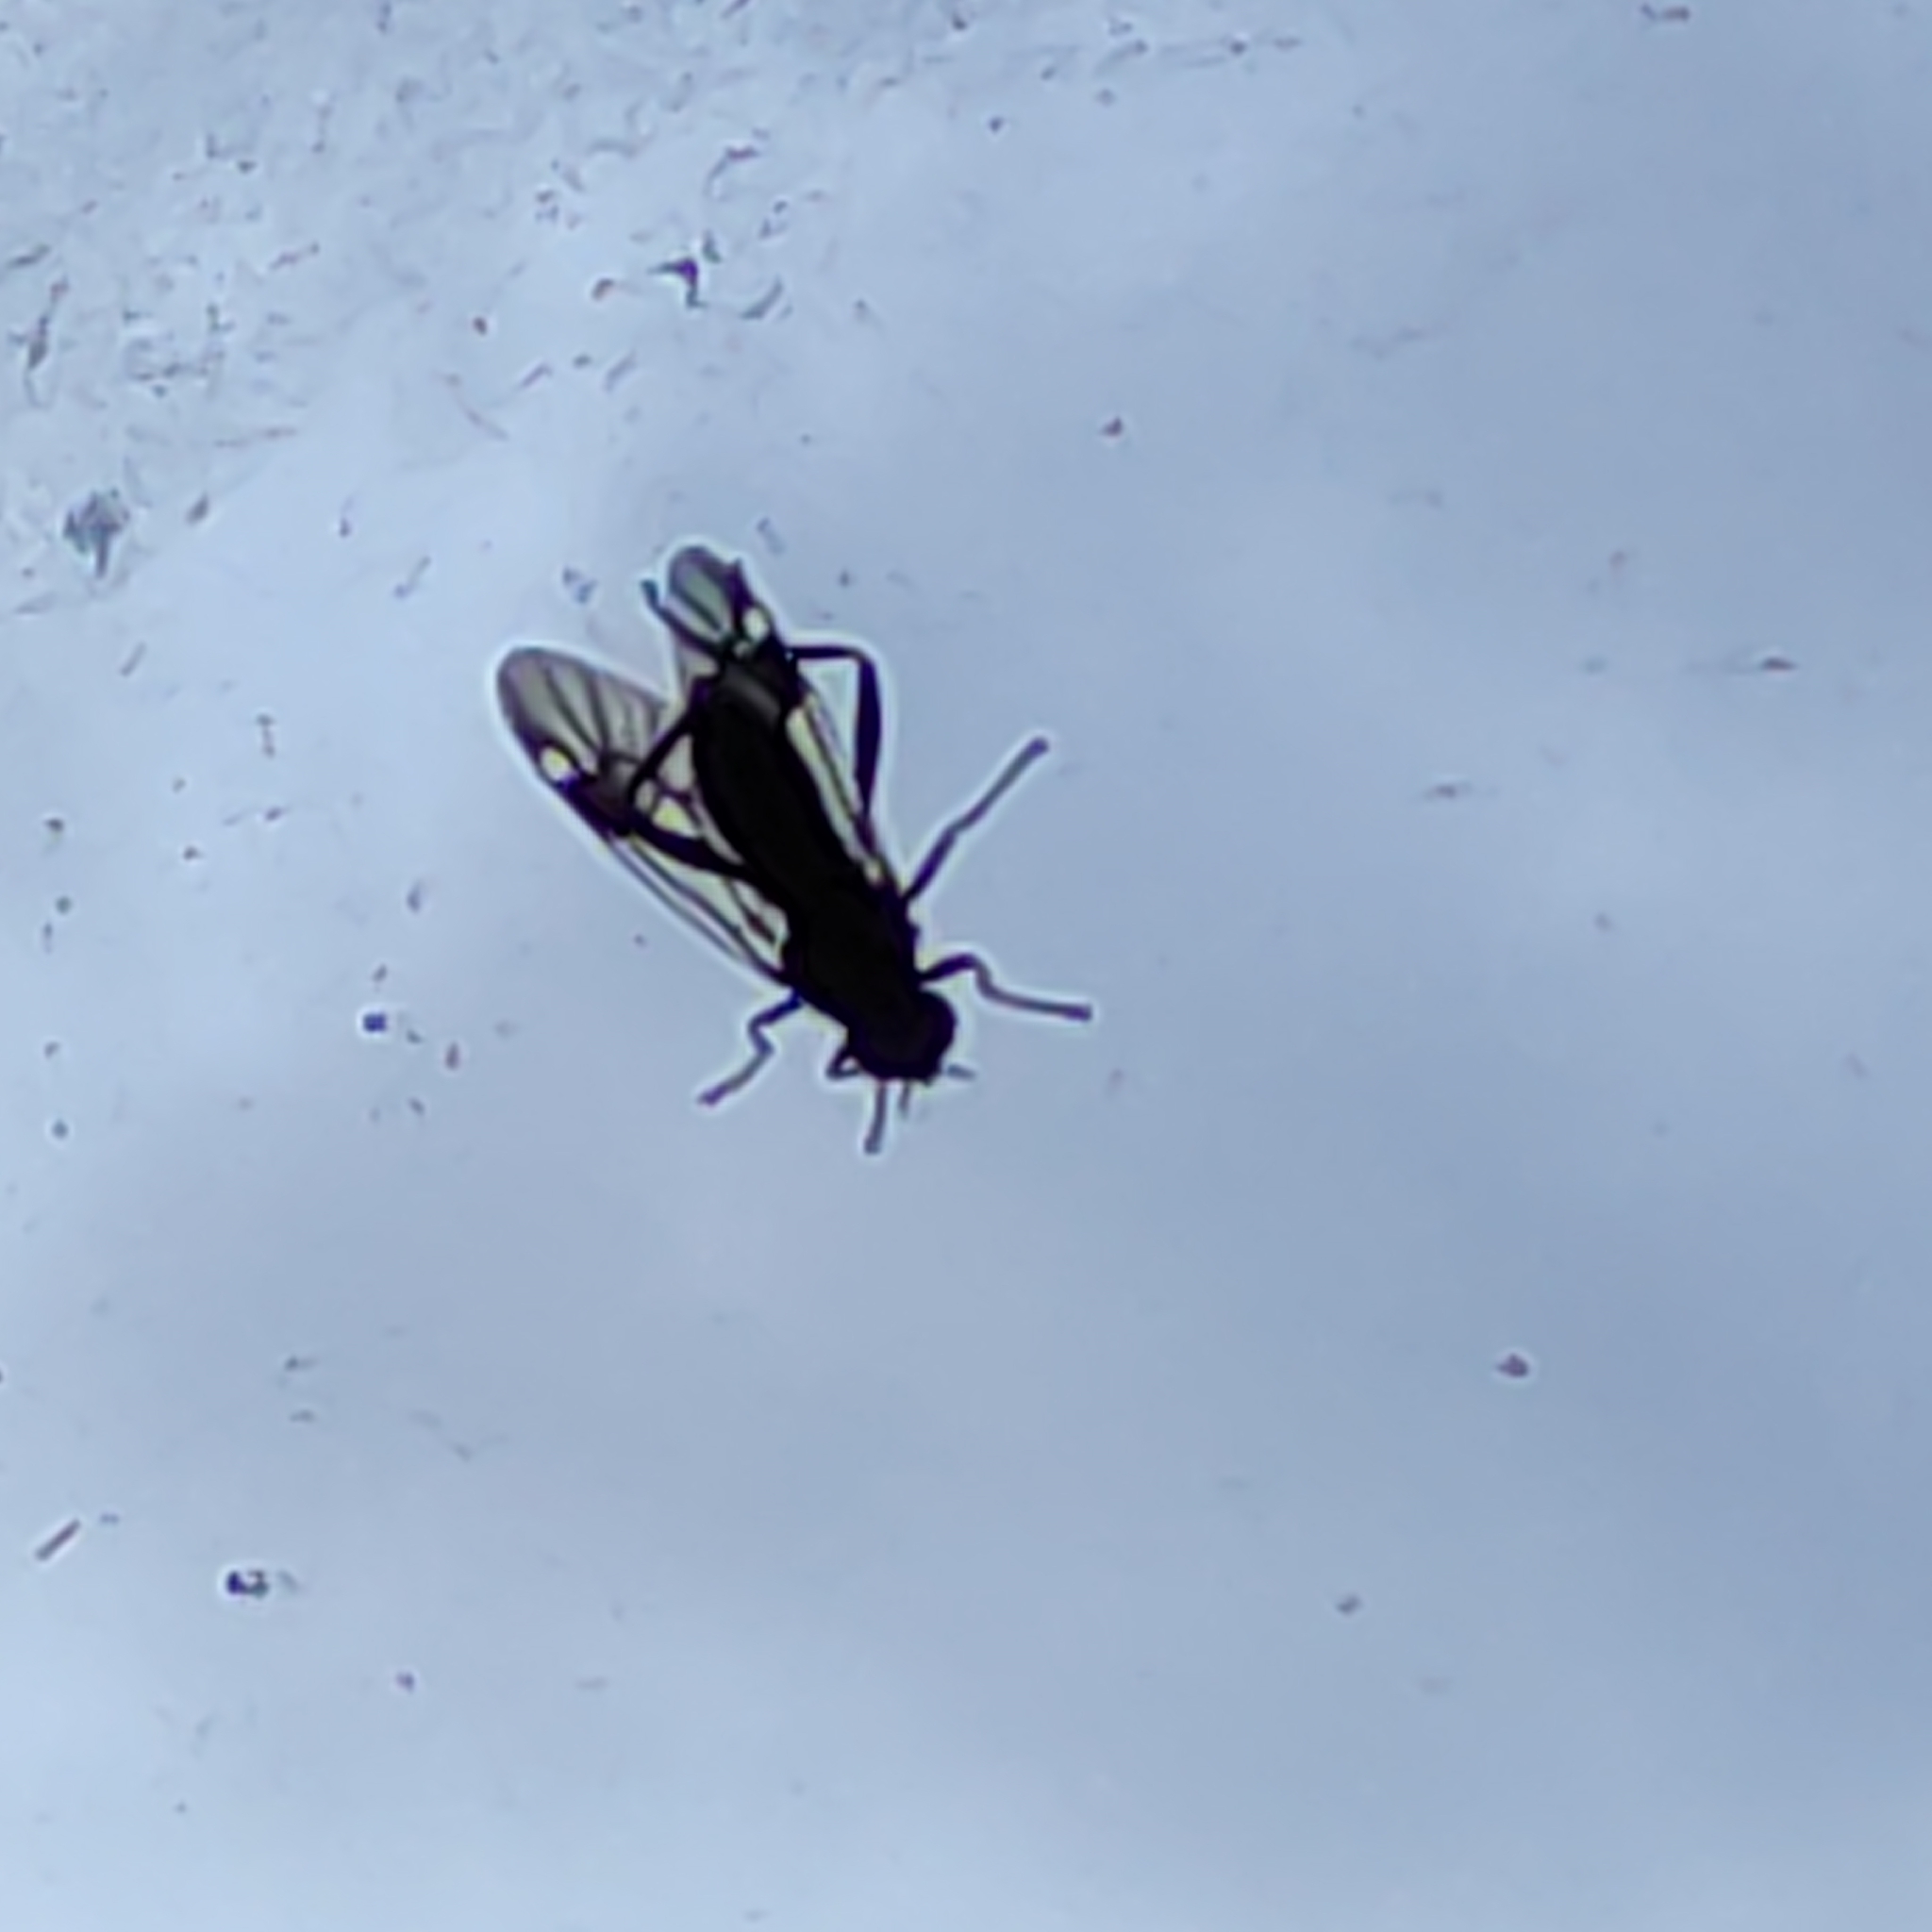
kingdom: Animalia
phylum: Arthropoda
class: Insecta
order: Diptera
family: Stratiomyidae
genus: Exaireta
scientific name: Exaireta spinigera
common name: Blue soldier fly
